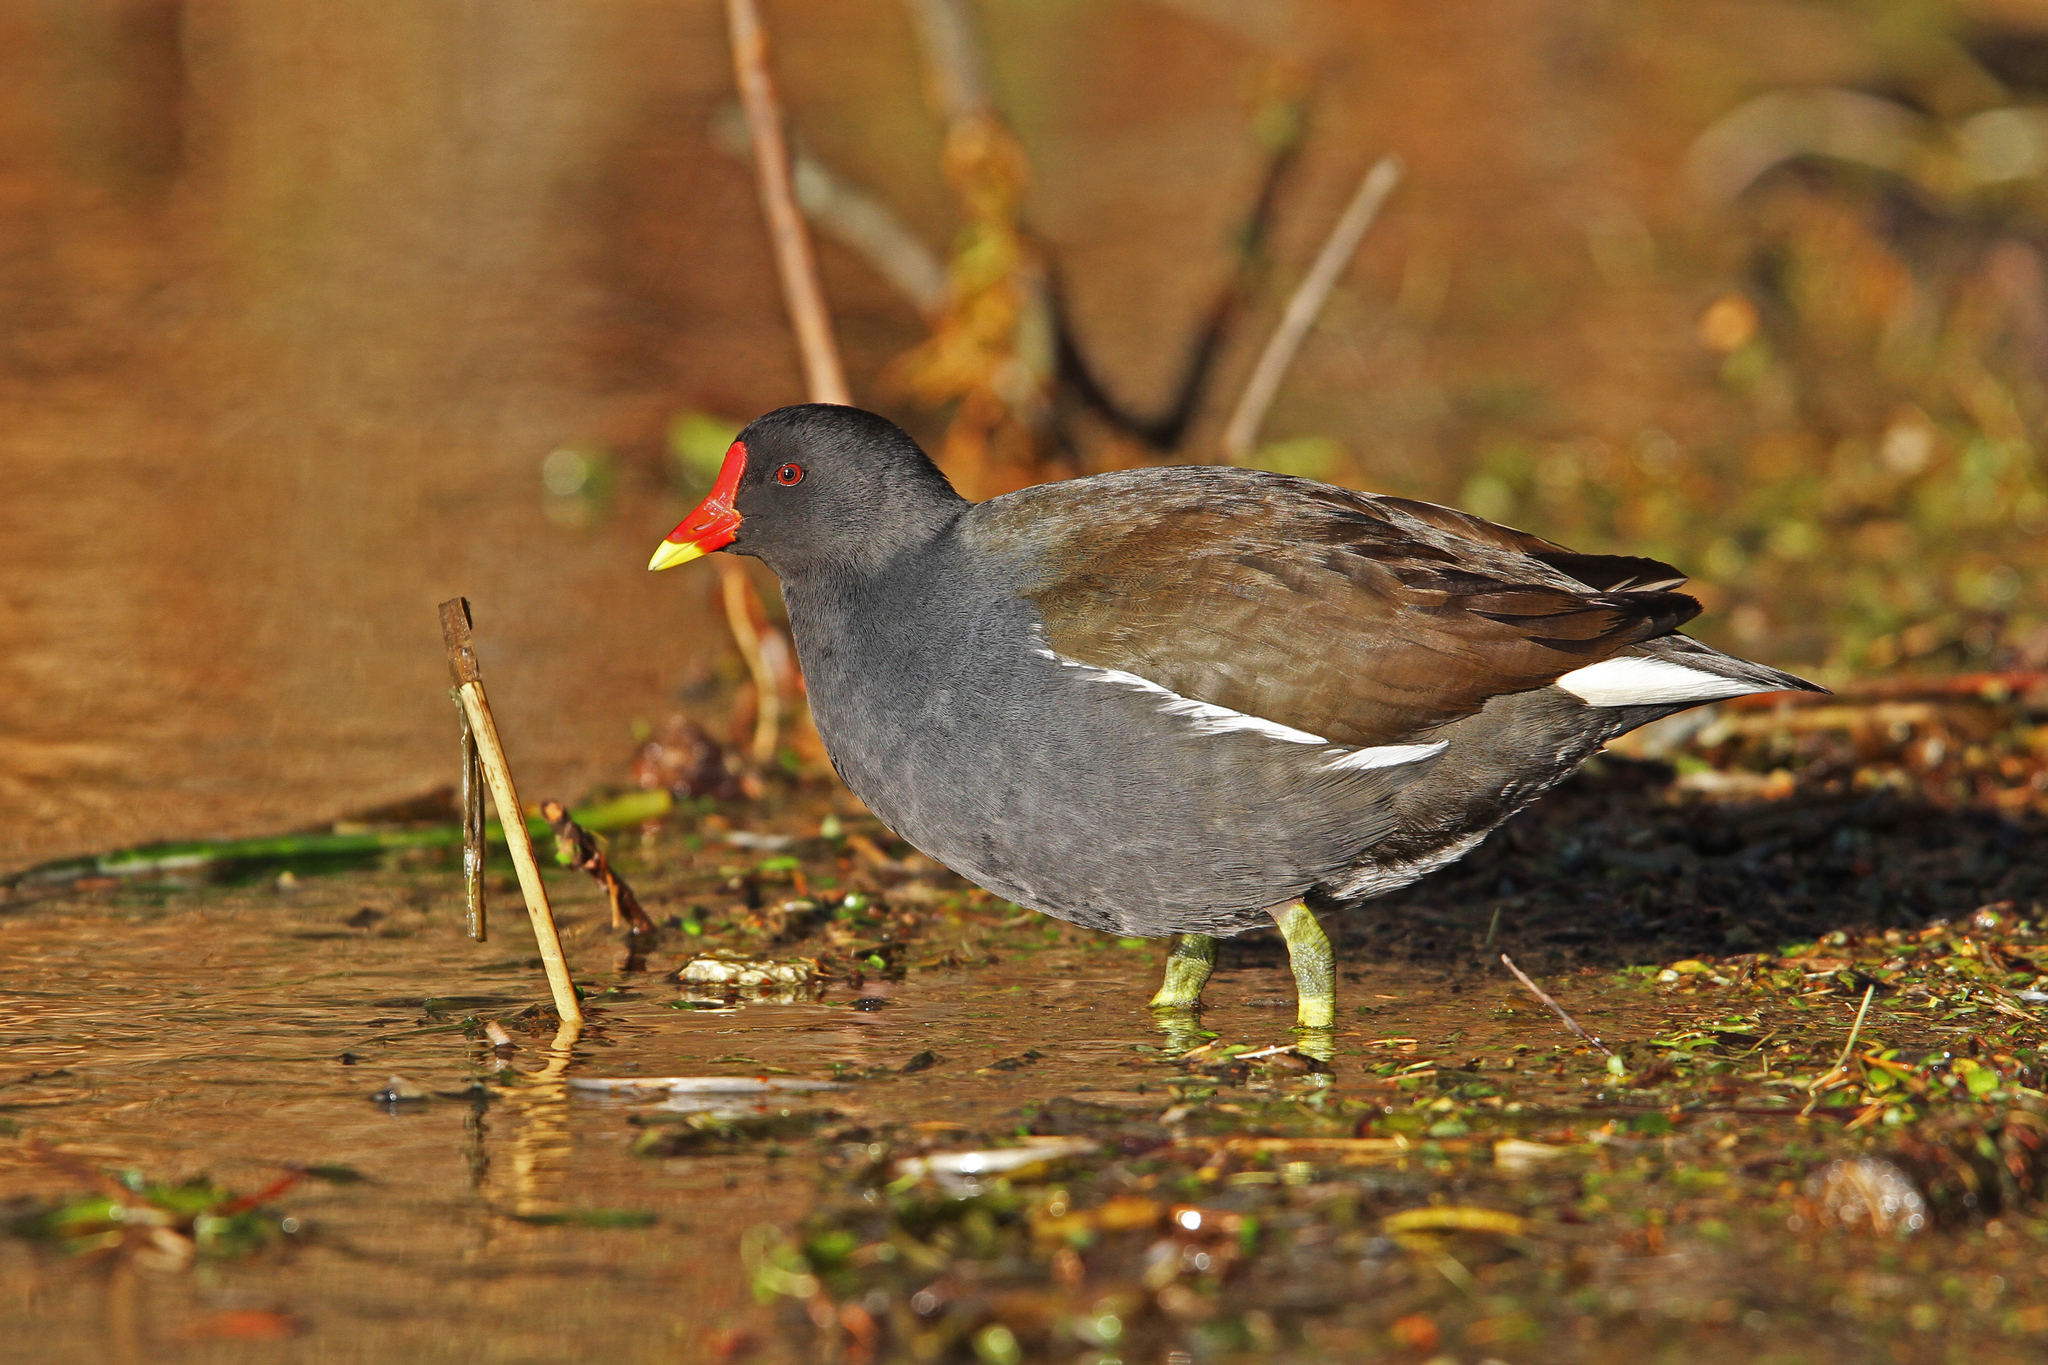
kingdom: Animalia
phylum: Chordata
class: Aves
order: Gruiformes
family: Rallidae
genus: Gallinula
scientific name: Gallinula chloropus
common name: Common moorhen
